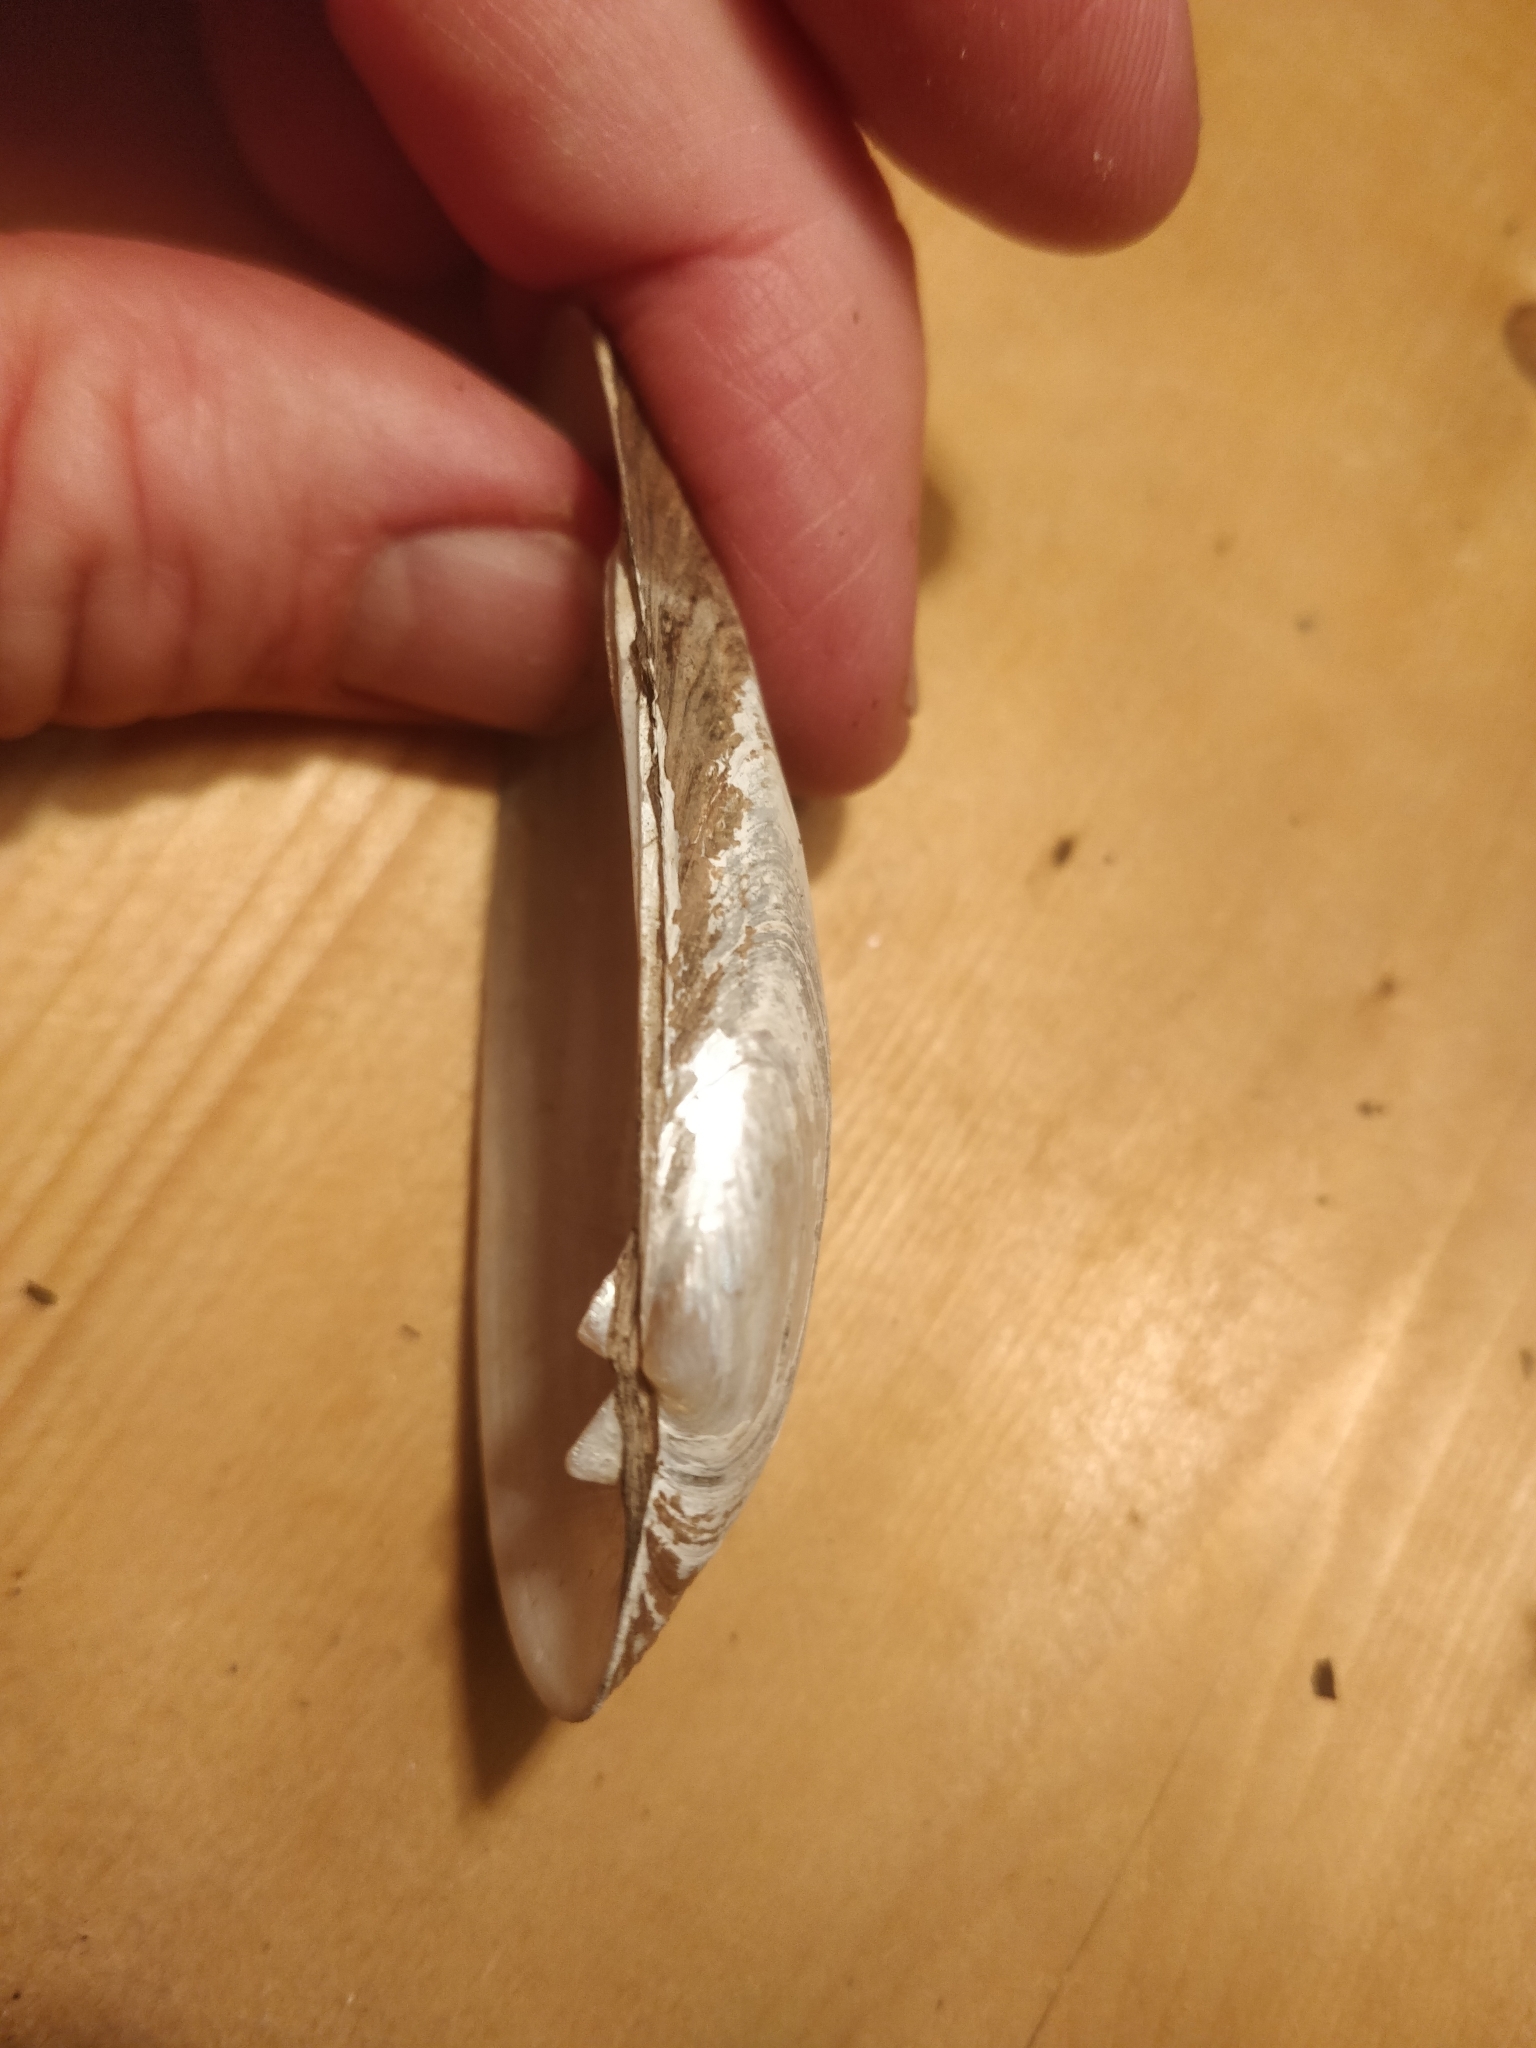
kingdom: Animalia
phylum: Mollusca
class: Bivalvia
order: Unionida
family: Unionidae
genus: Lampsilis
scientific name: Lampsilis teres
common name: Yellow sandshell
